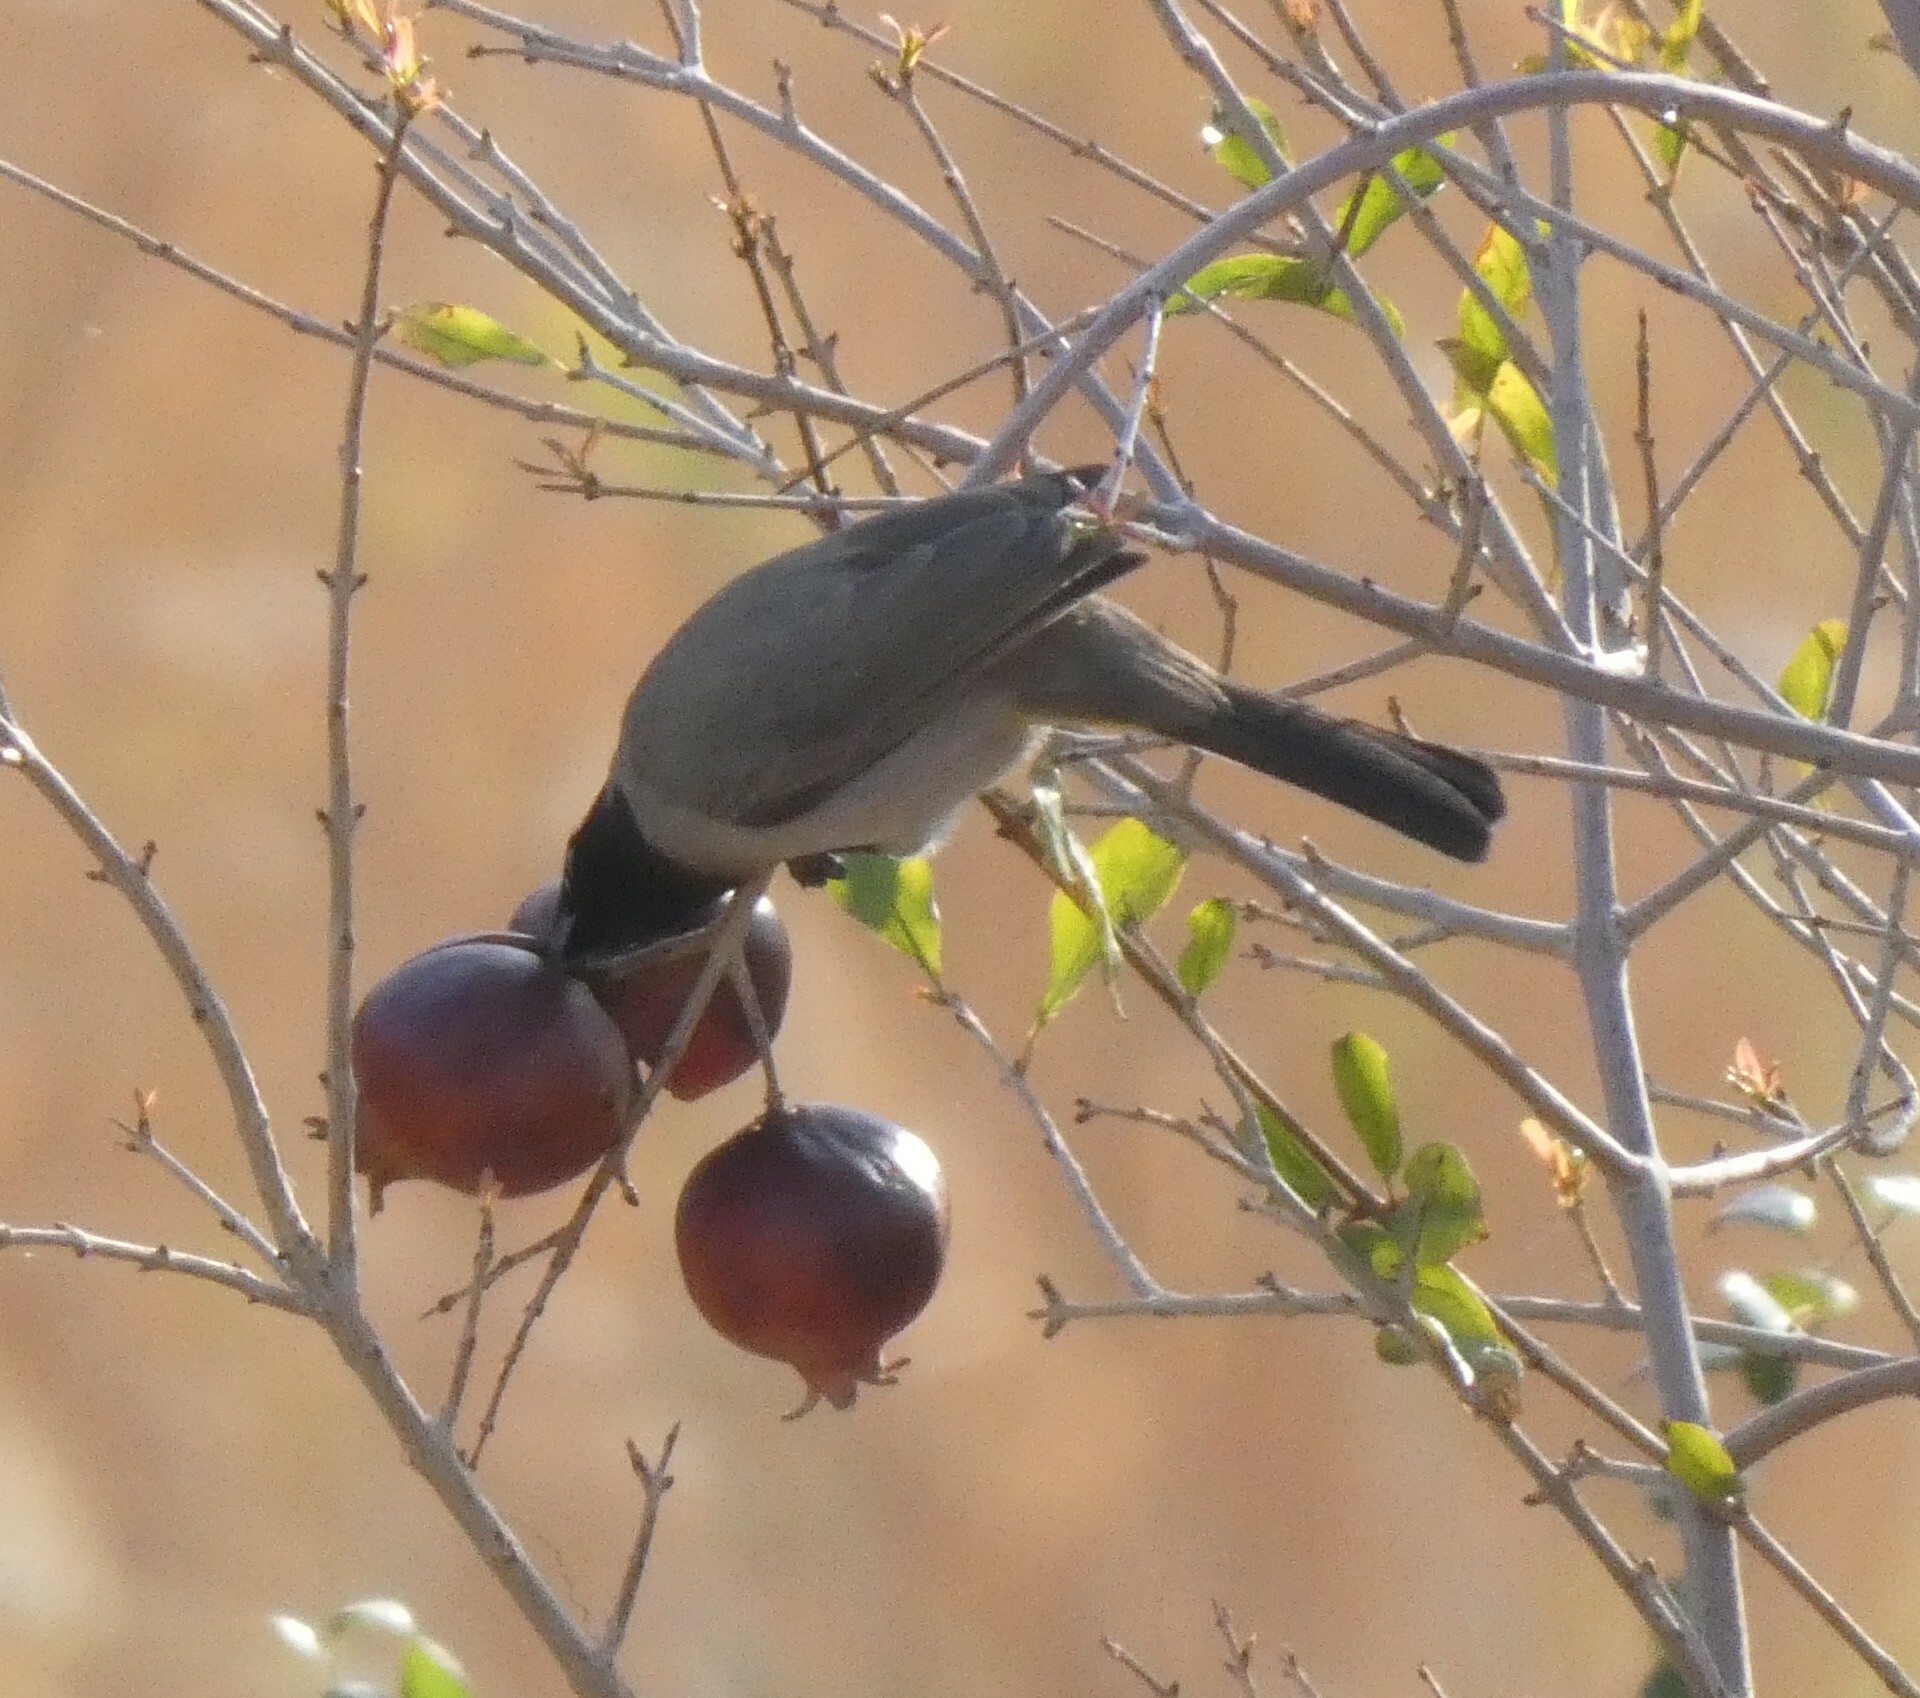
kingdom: Animalia
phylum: Chordata
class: Aves
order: Passeriformes
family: Pycnonotidae
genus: Pycnonotus
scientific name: Pycnonotus xanthopygos
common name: White-spectacled bulbul
